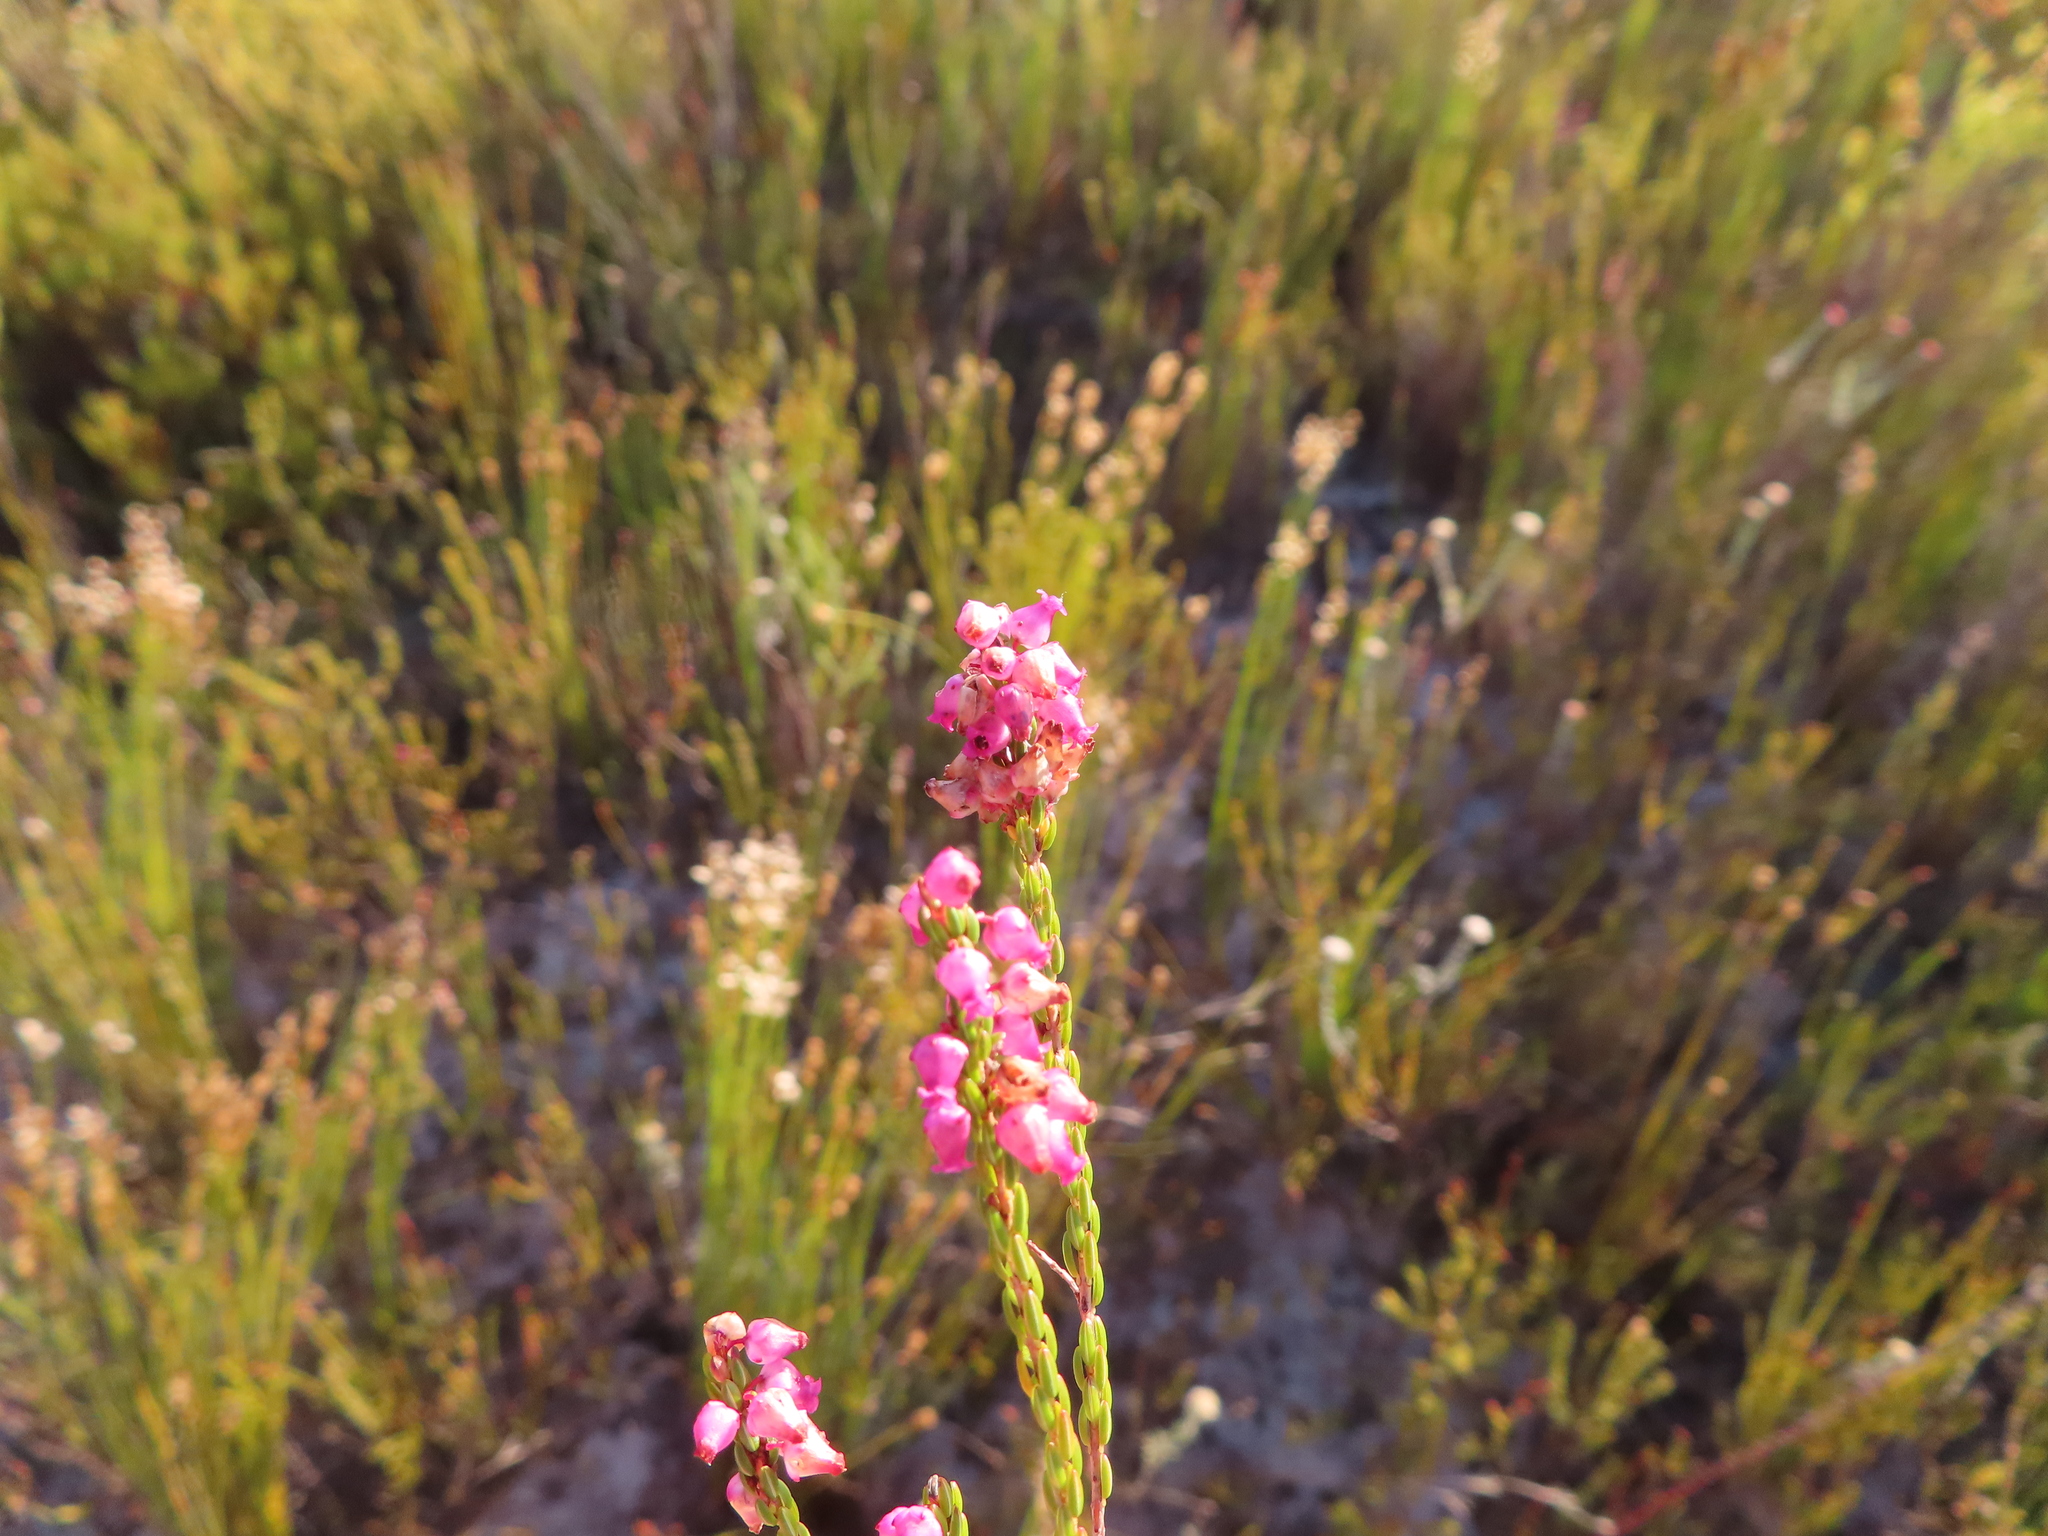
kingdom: Plantae
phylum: Tracheophyta
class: Magnoliopsida
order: Ericales
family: Ericaceae
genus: Erica
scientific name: Erica rhopalantha
